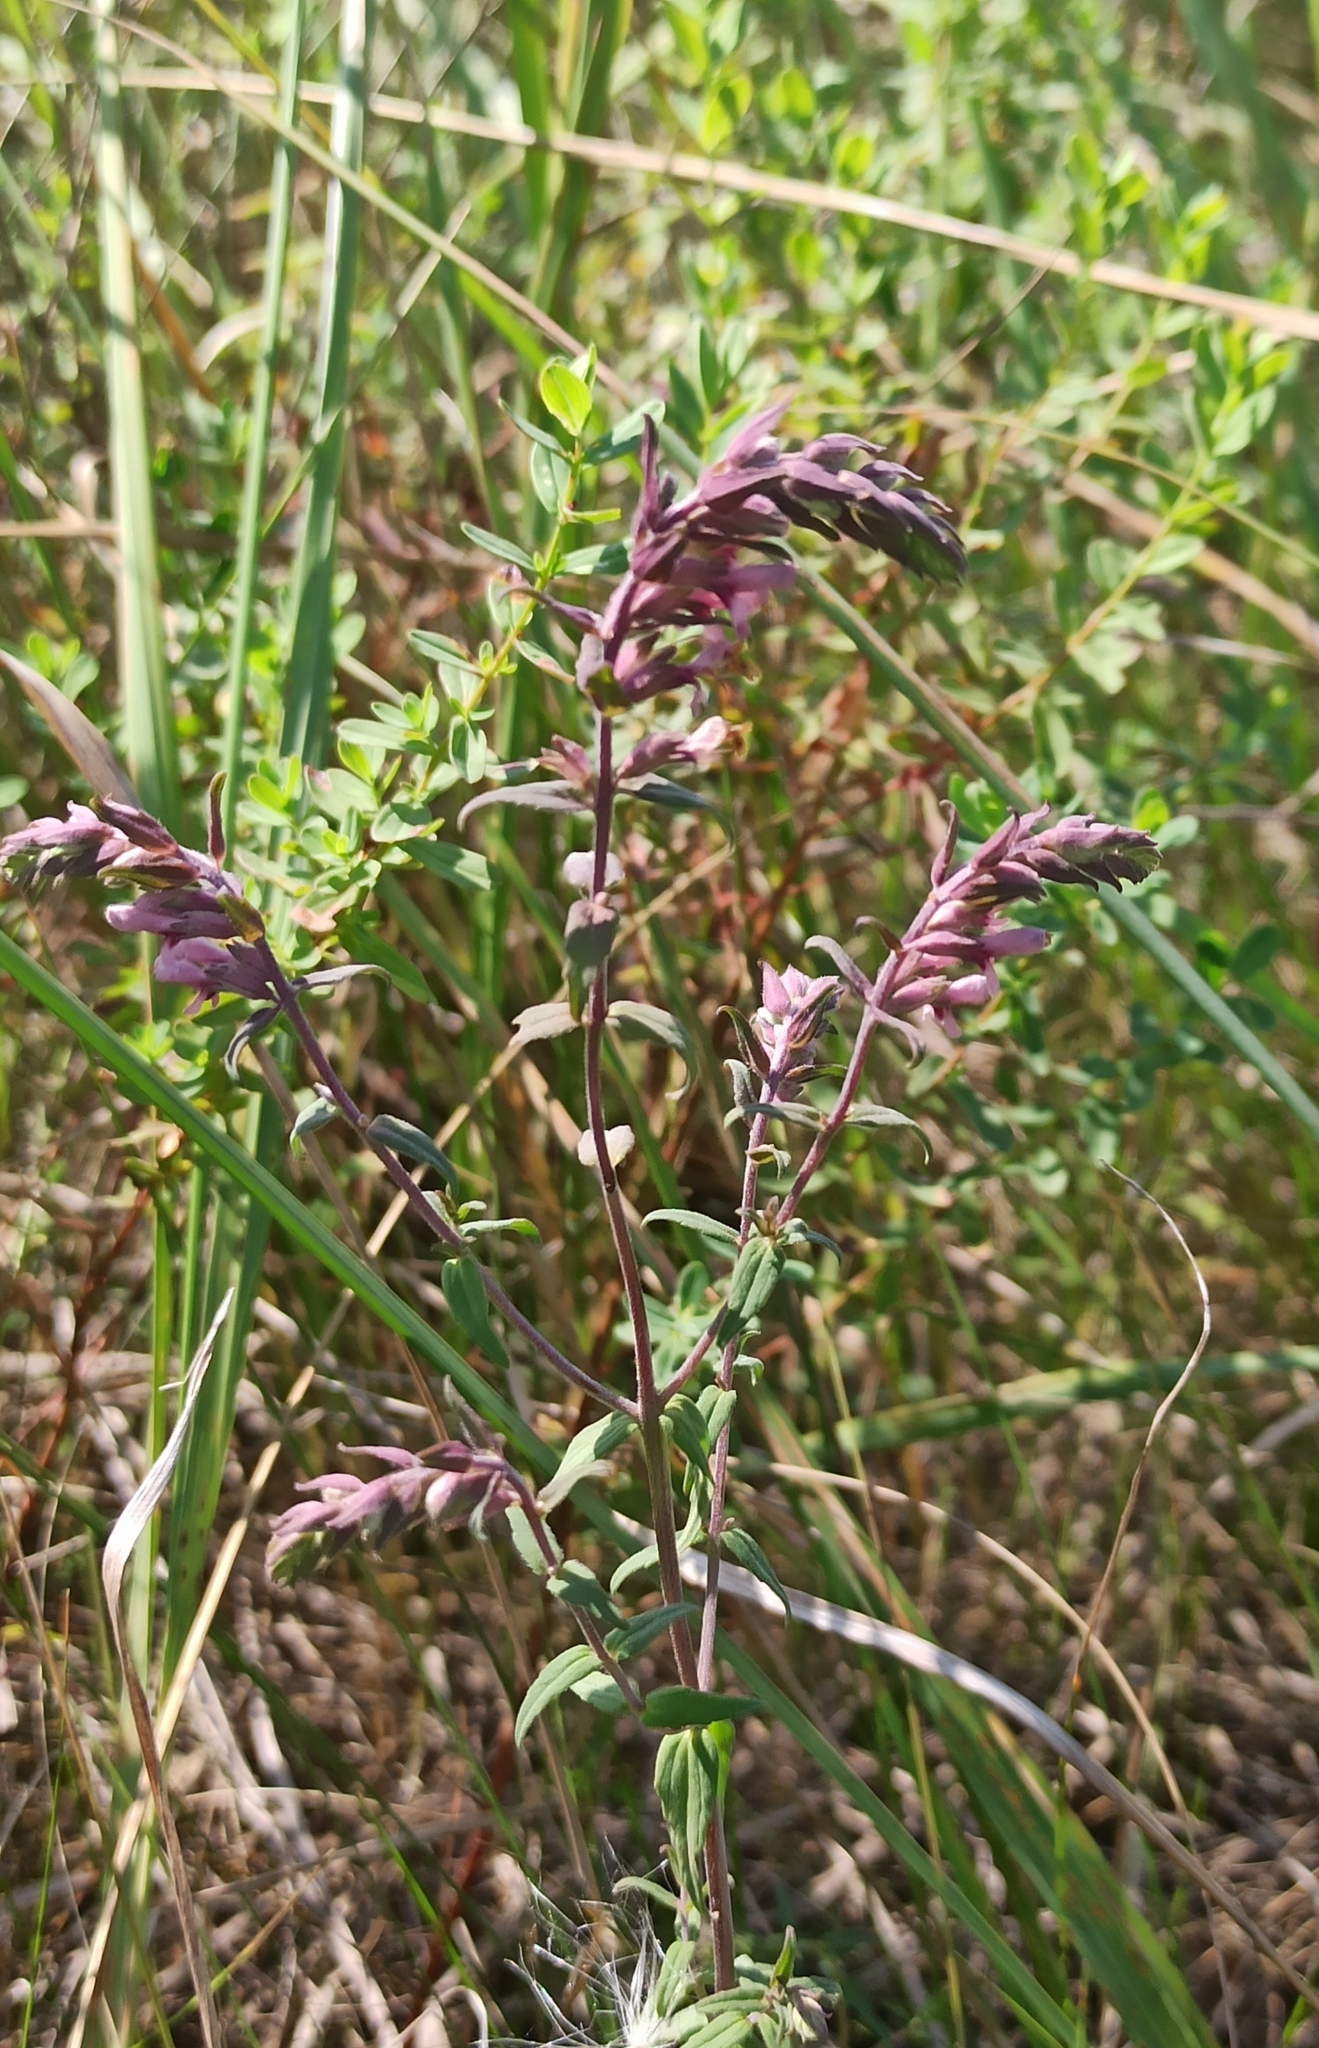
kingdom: Plantae
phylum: Tracheophyta
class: Magnoliopsida
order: Lamiales
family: Orobanchaceae
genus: Odontites
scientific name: Odontites vulgaris
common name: Broomrape
